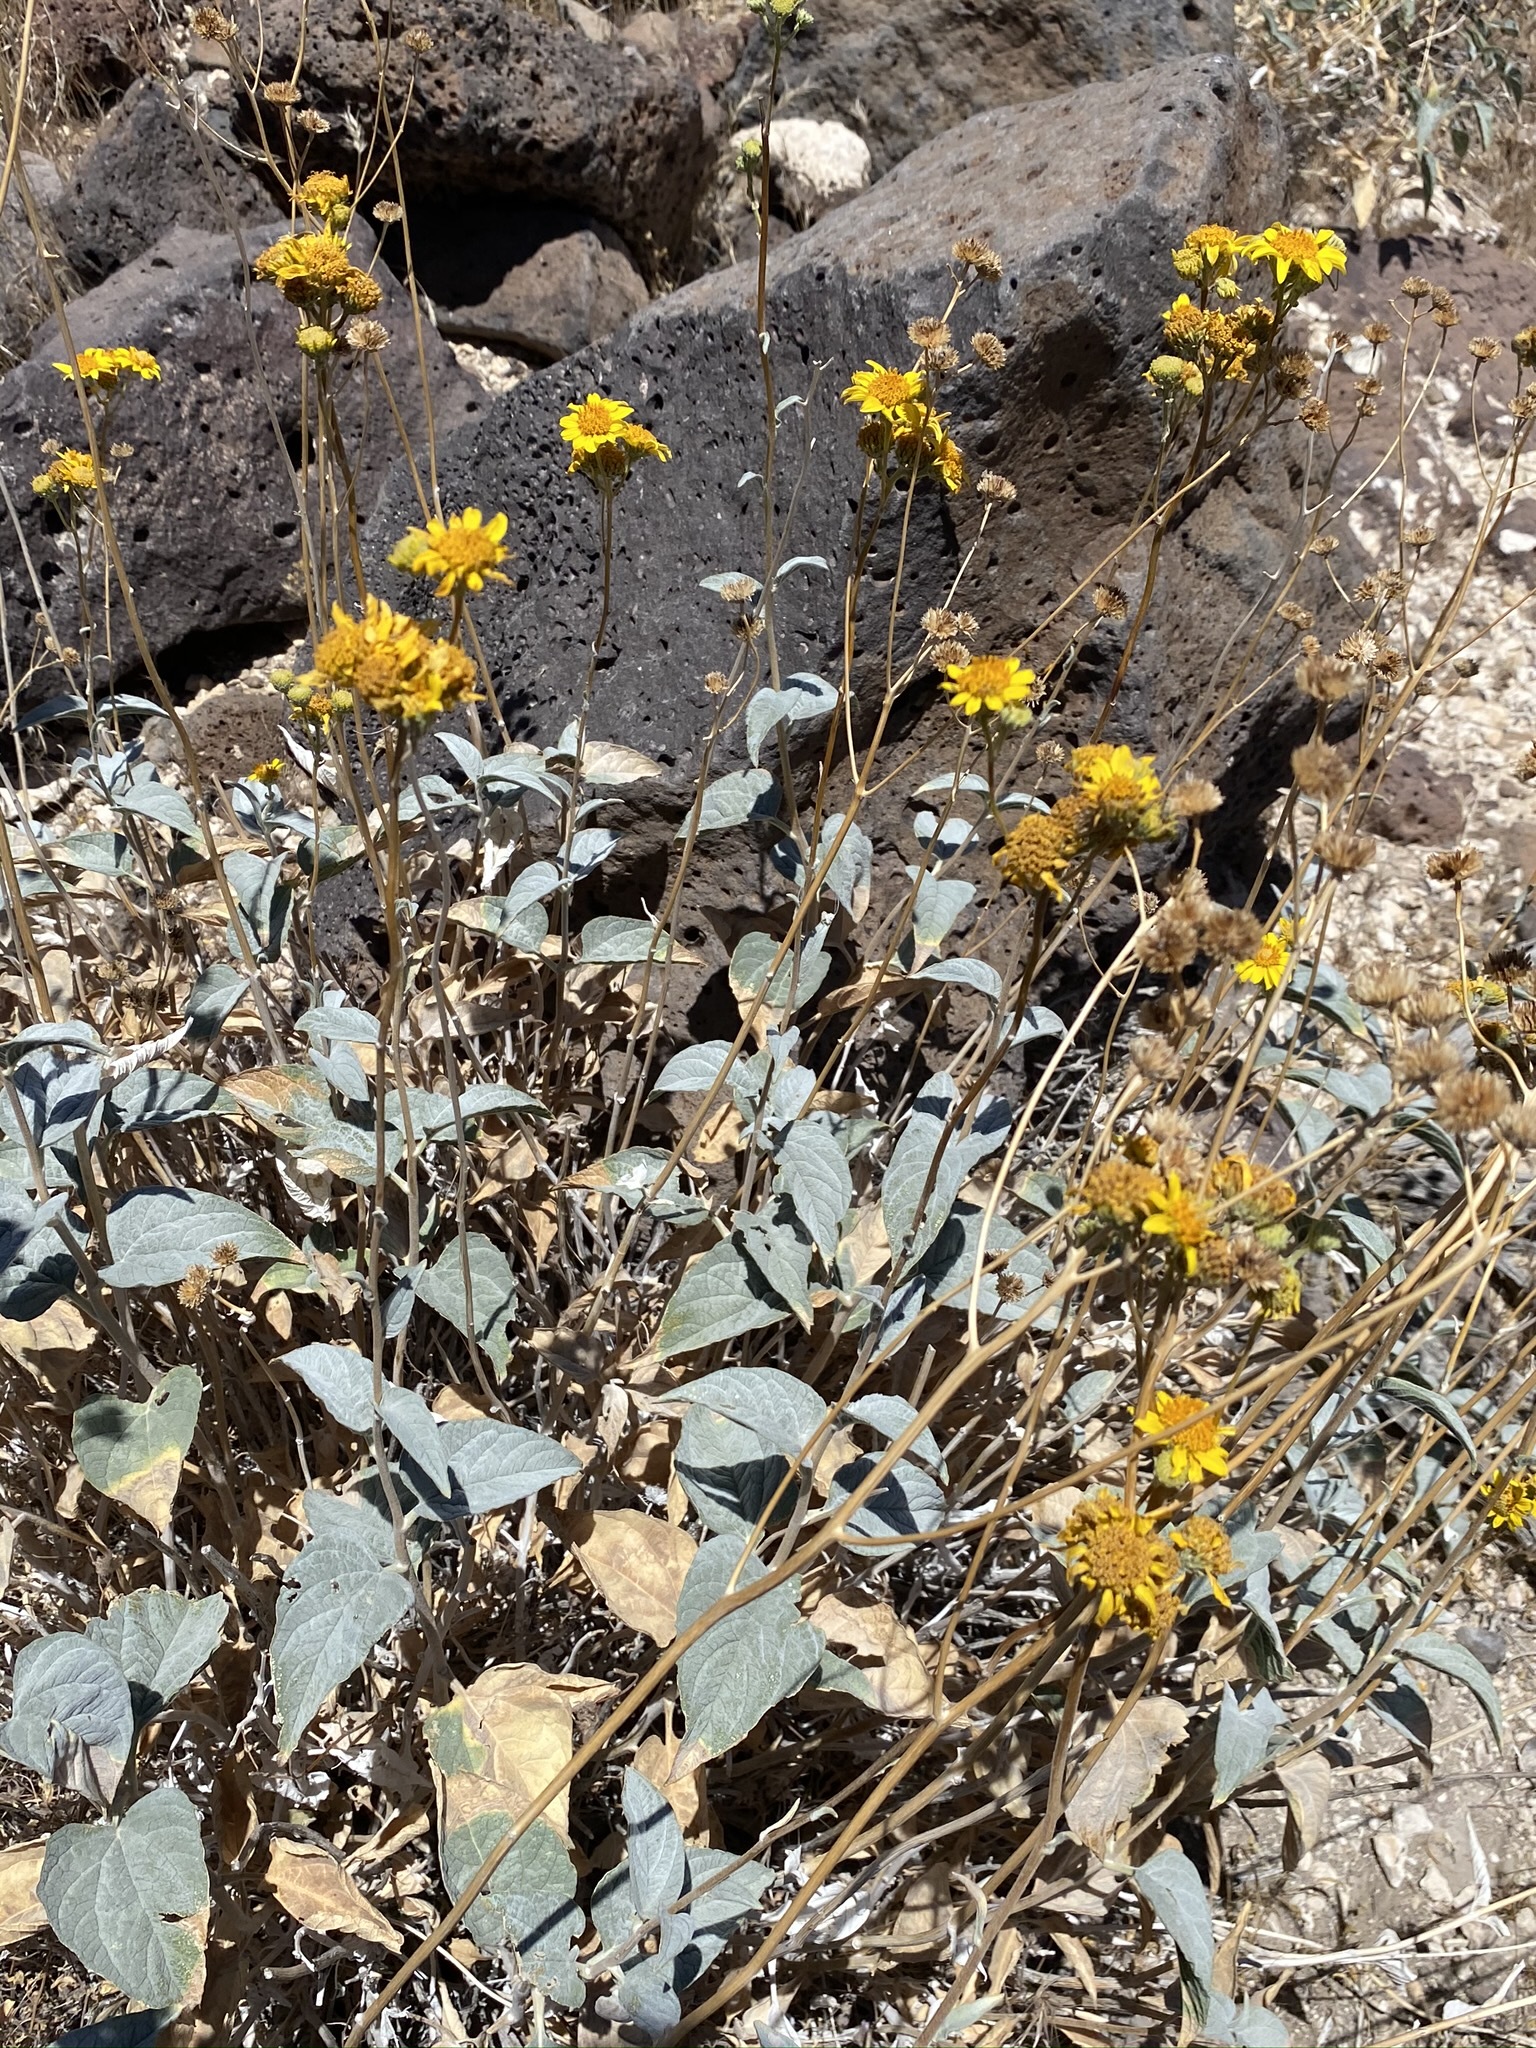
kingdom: Plantae
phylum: Tracheophyta
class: Magnoliopsida
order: Asterales
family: Asteraceae
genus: Bahiopsis
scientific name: Bahiopsis reticulata
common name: Death valley goldeneye
